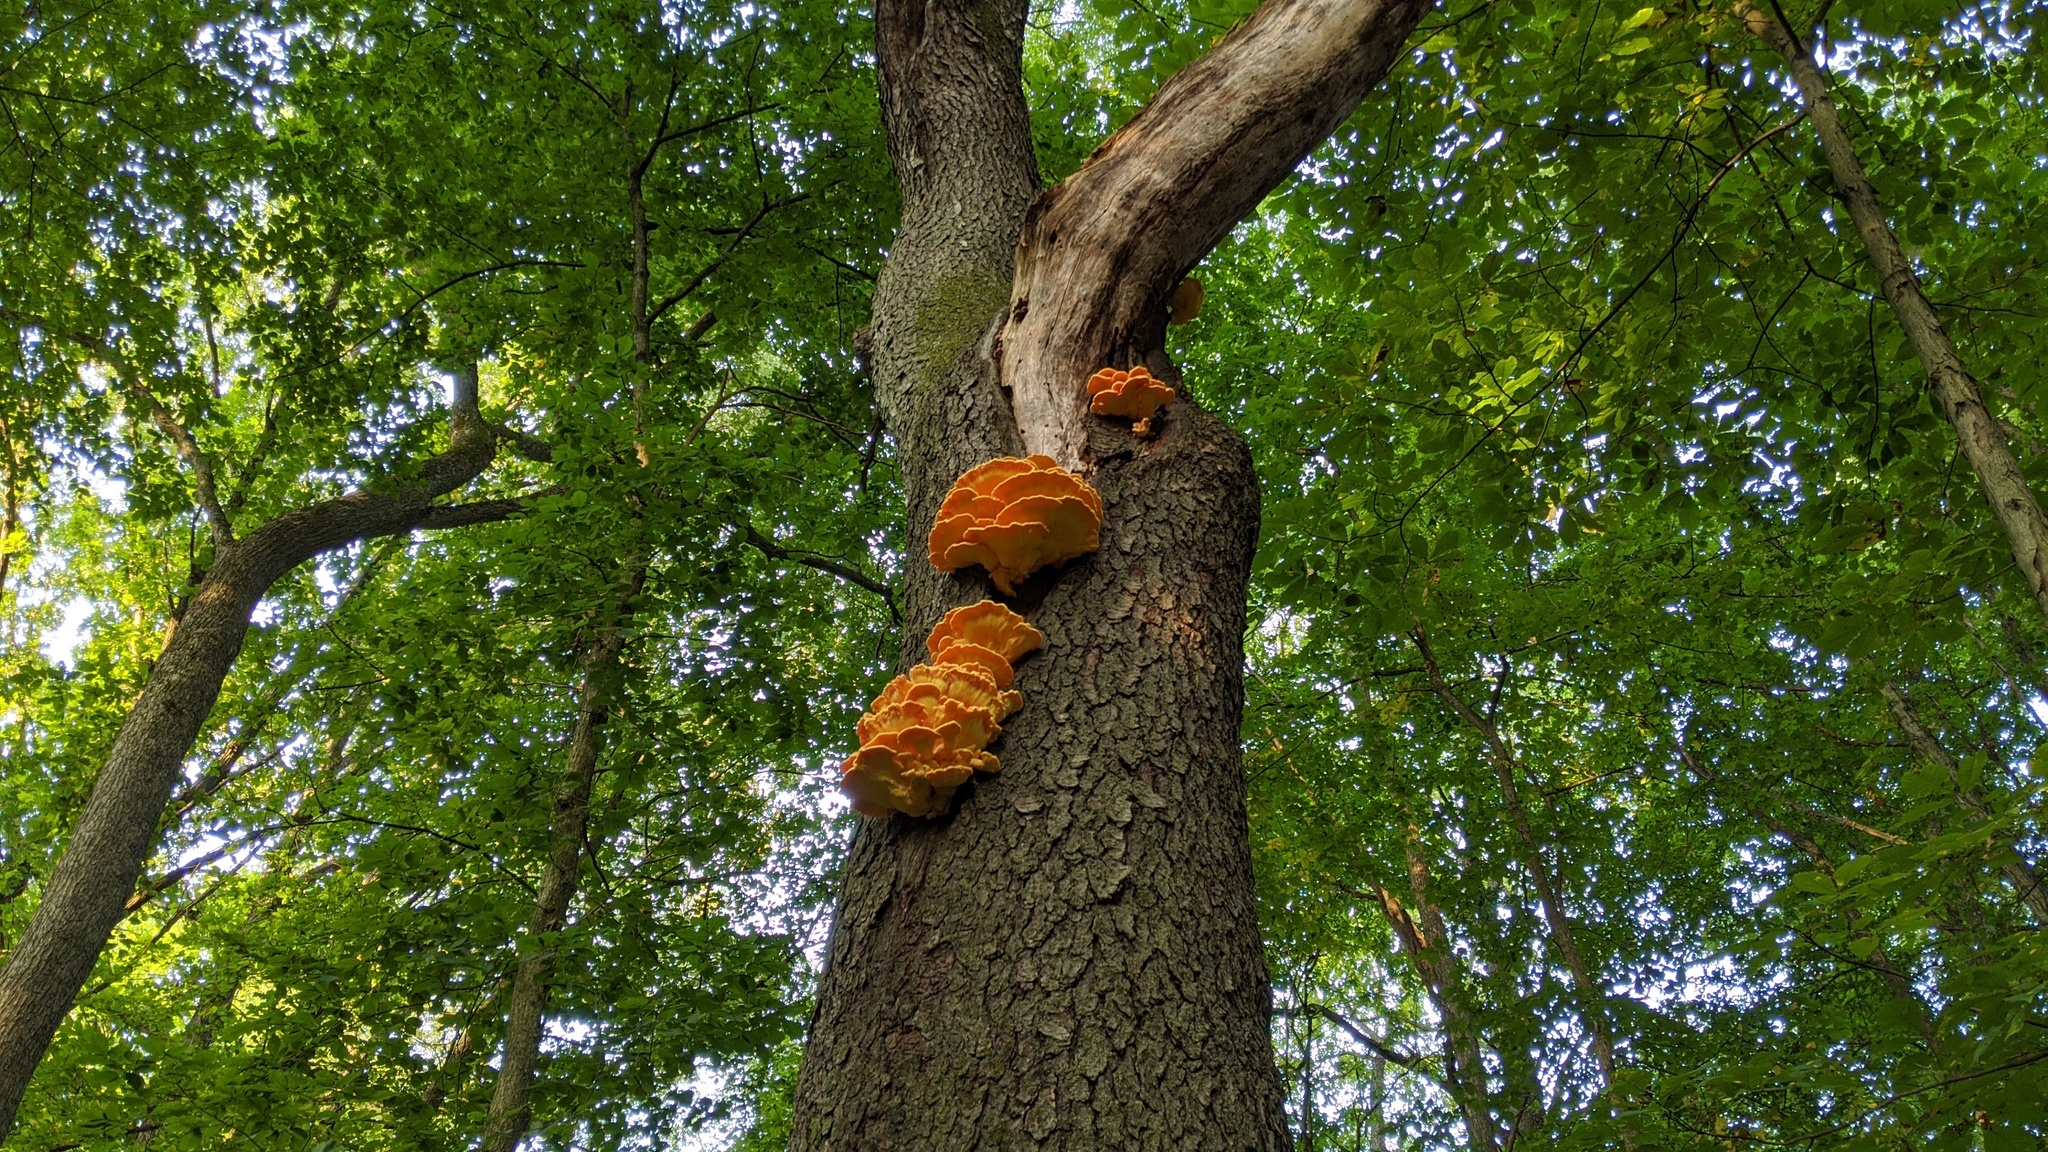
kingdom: Fungi
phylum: Basidiomycota
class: Agaricomycetes
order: Polyporales
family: Laetiporaceae
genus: Laetiporus
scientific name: Laetiporus sulphureus
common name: Chicken of the woods
